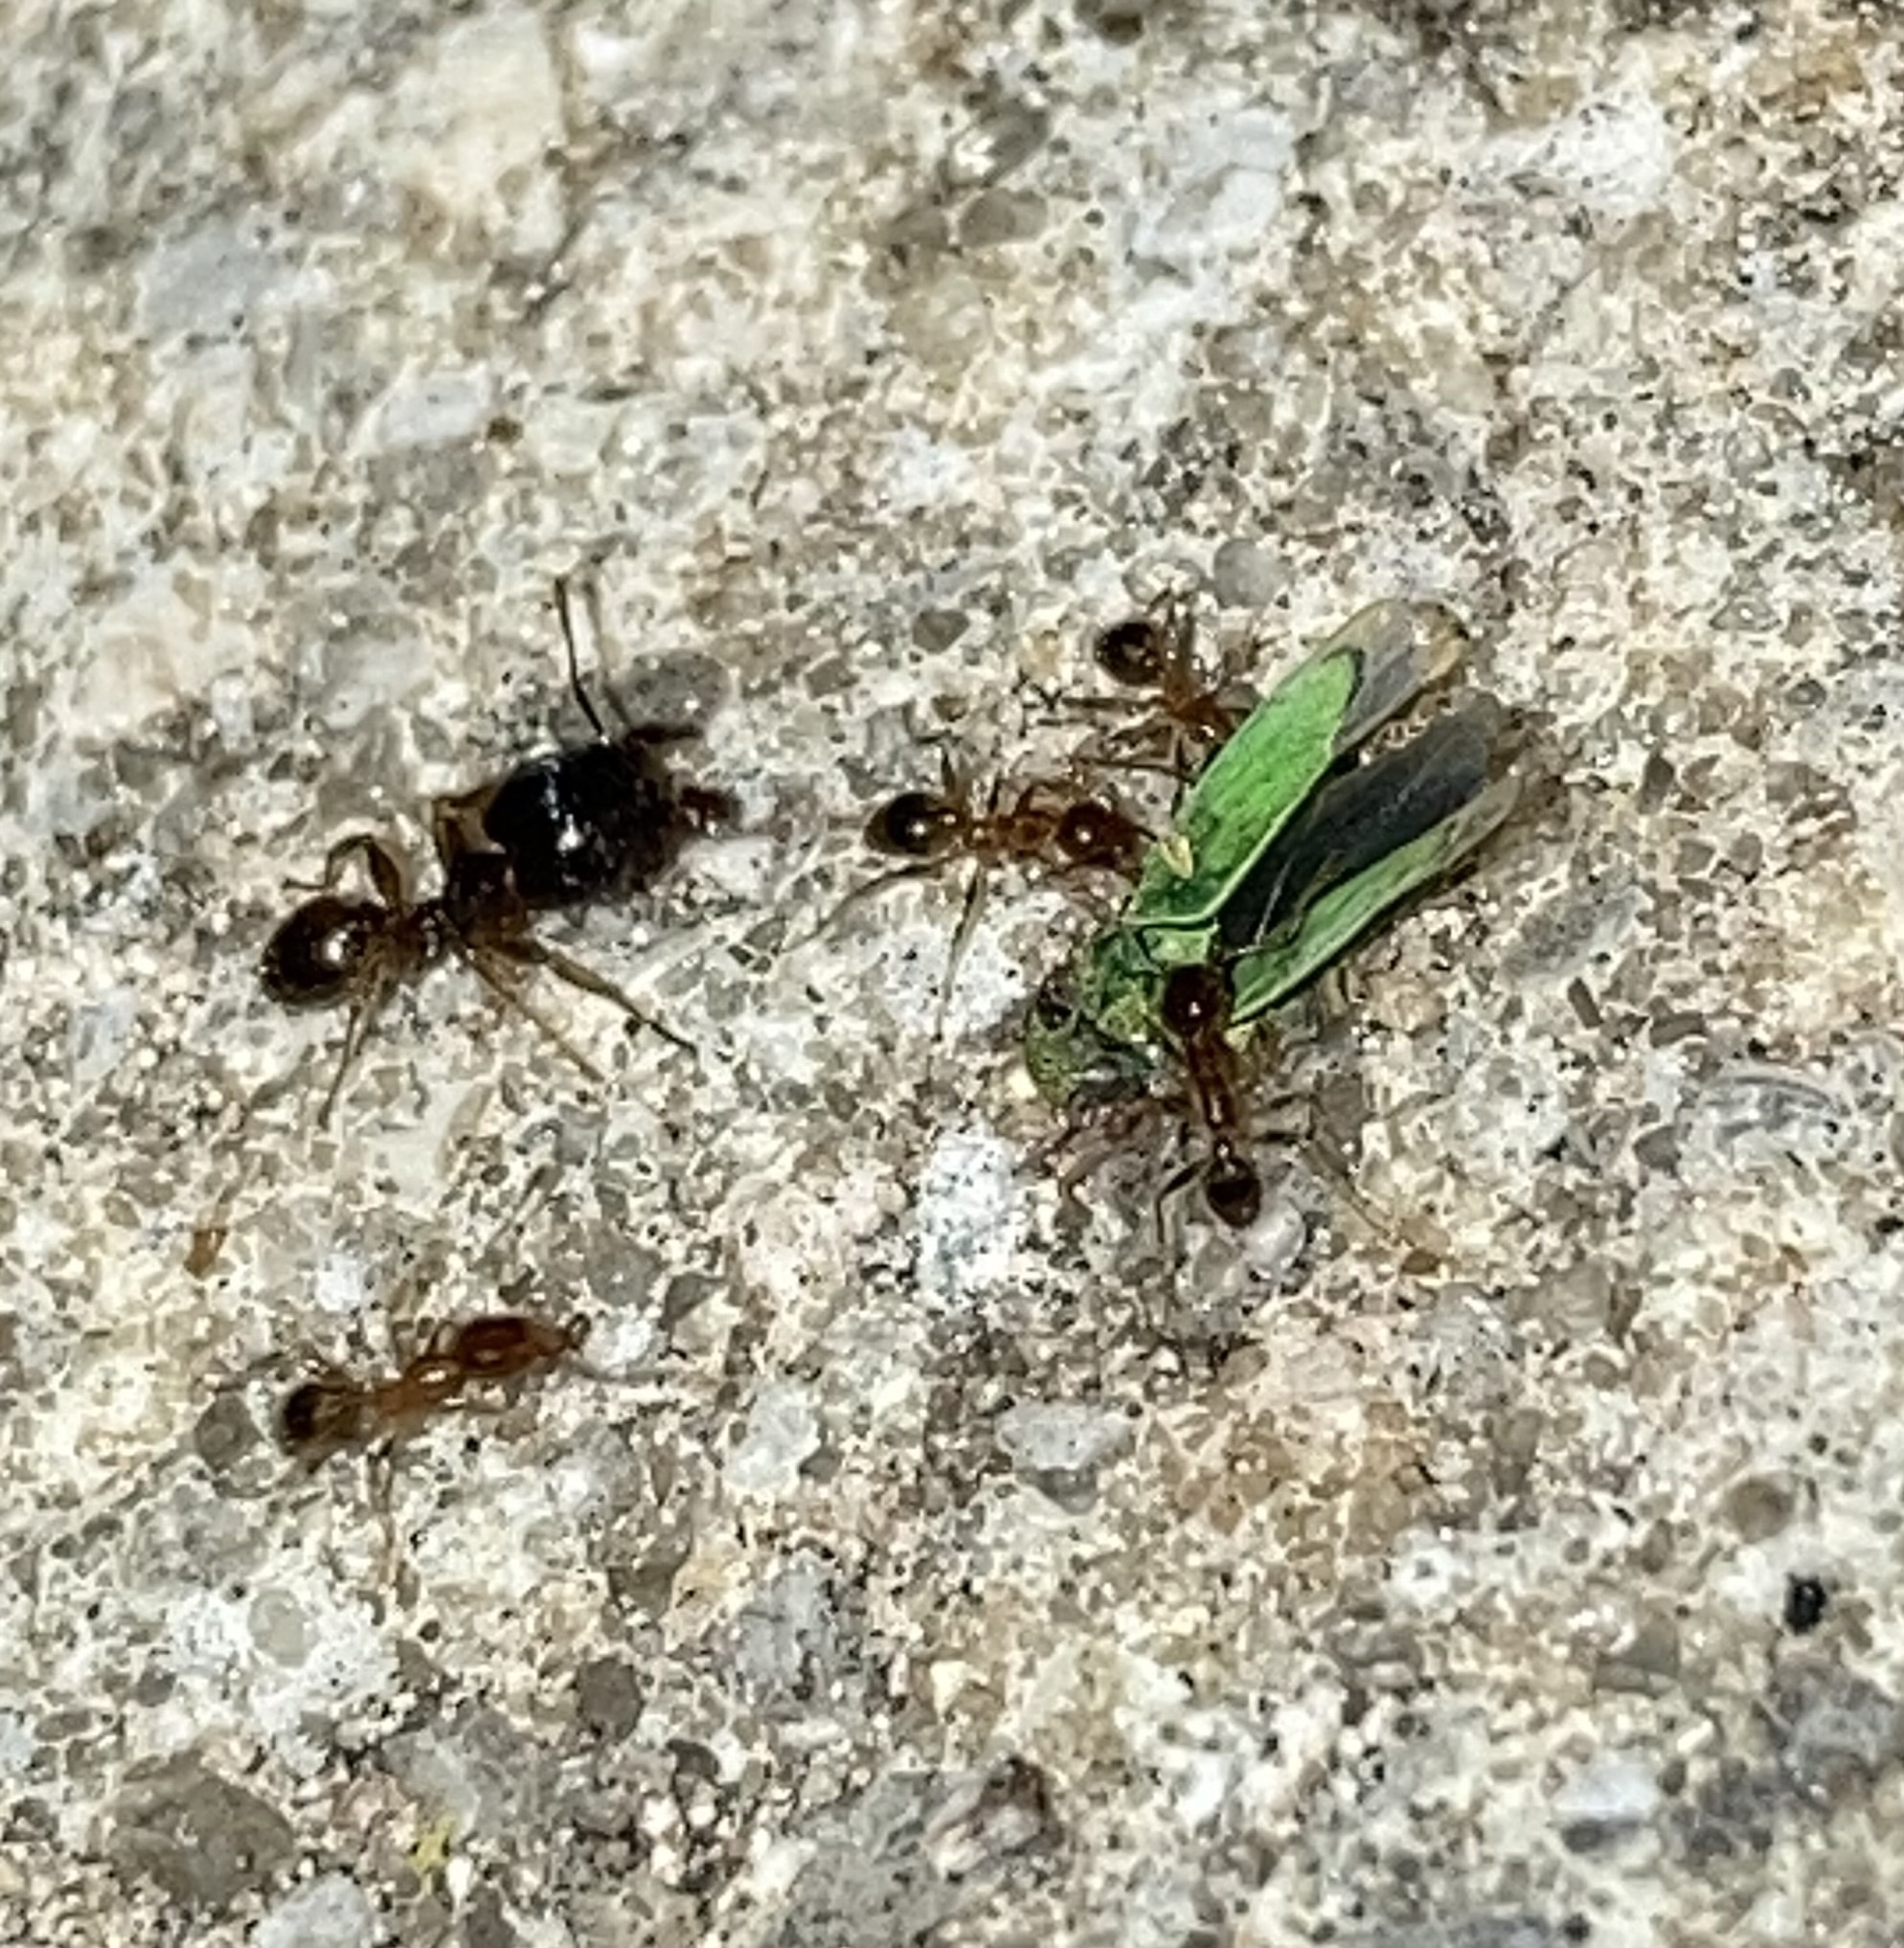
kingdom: Animalia
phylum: Arthropoda
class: Insecta
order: Hymenoptera
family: Formicidae
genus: Pheidole
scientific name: Pheidole megacephala
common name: Bigheaded ant
